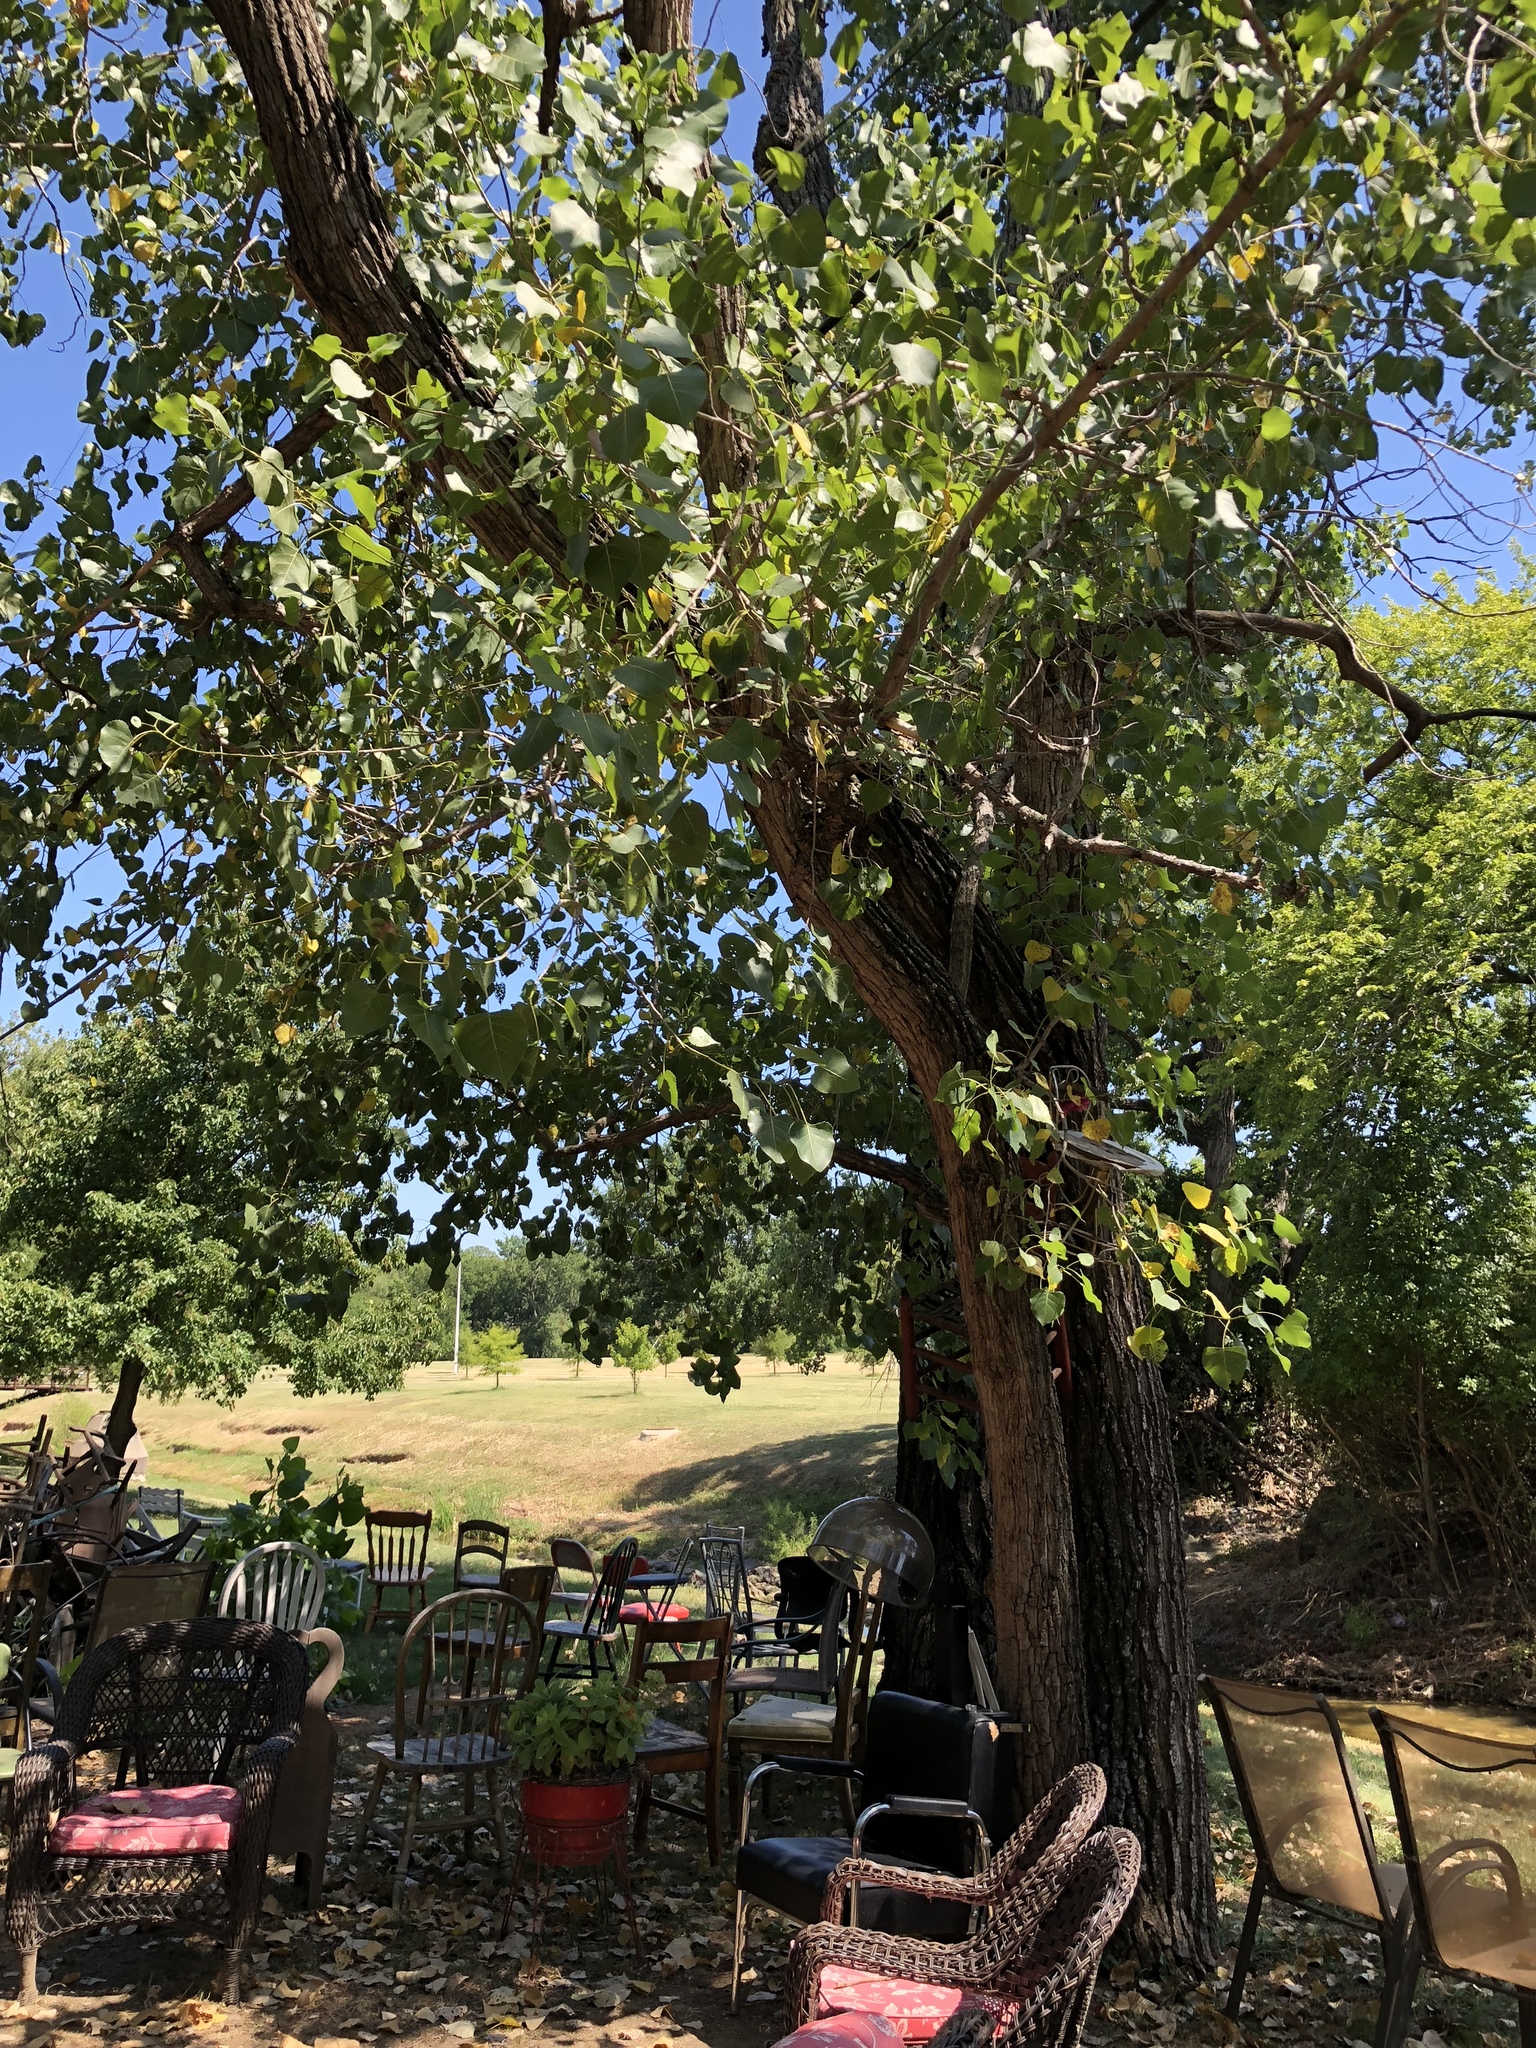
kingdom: Plantae
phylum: Tracheophyta
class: Magnoliopsida
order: Malpighiales
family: Salicaceae
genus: Populus
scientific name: Populus deltoides
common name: Eastern cottonwood
